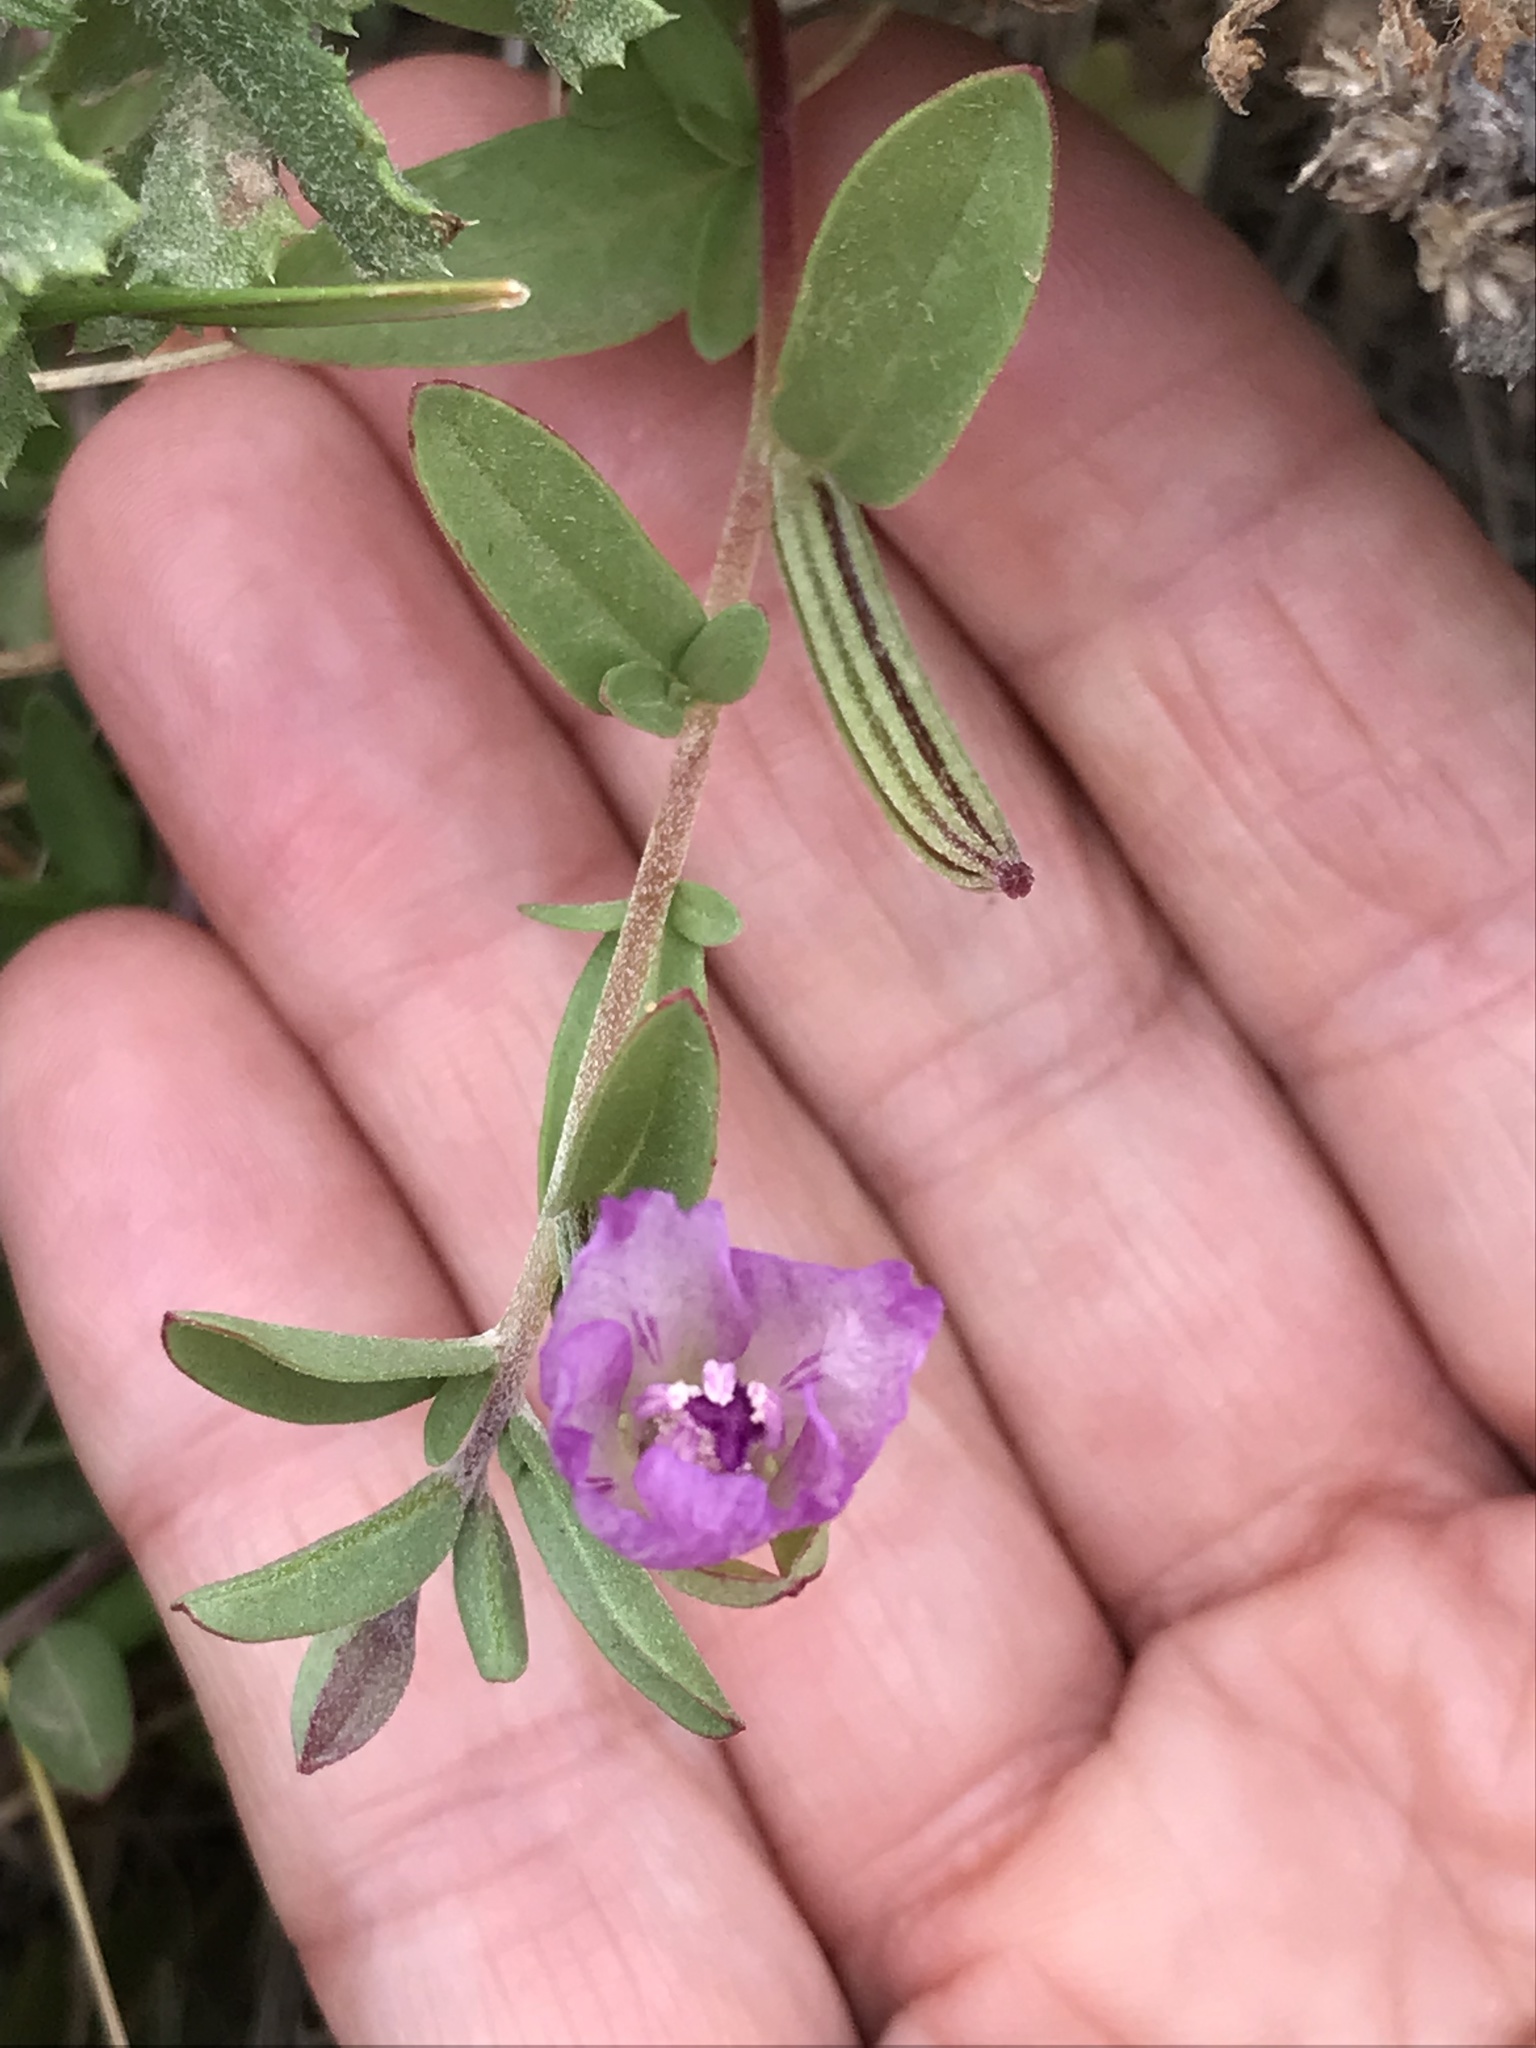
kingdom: Plantae
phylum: Tracheophyta
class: Magnoliopsida
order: Myrtales
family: Onagraceae
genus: Clarkia
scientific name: Clarkia prostrata
